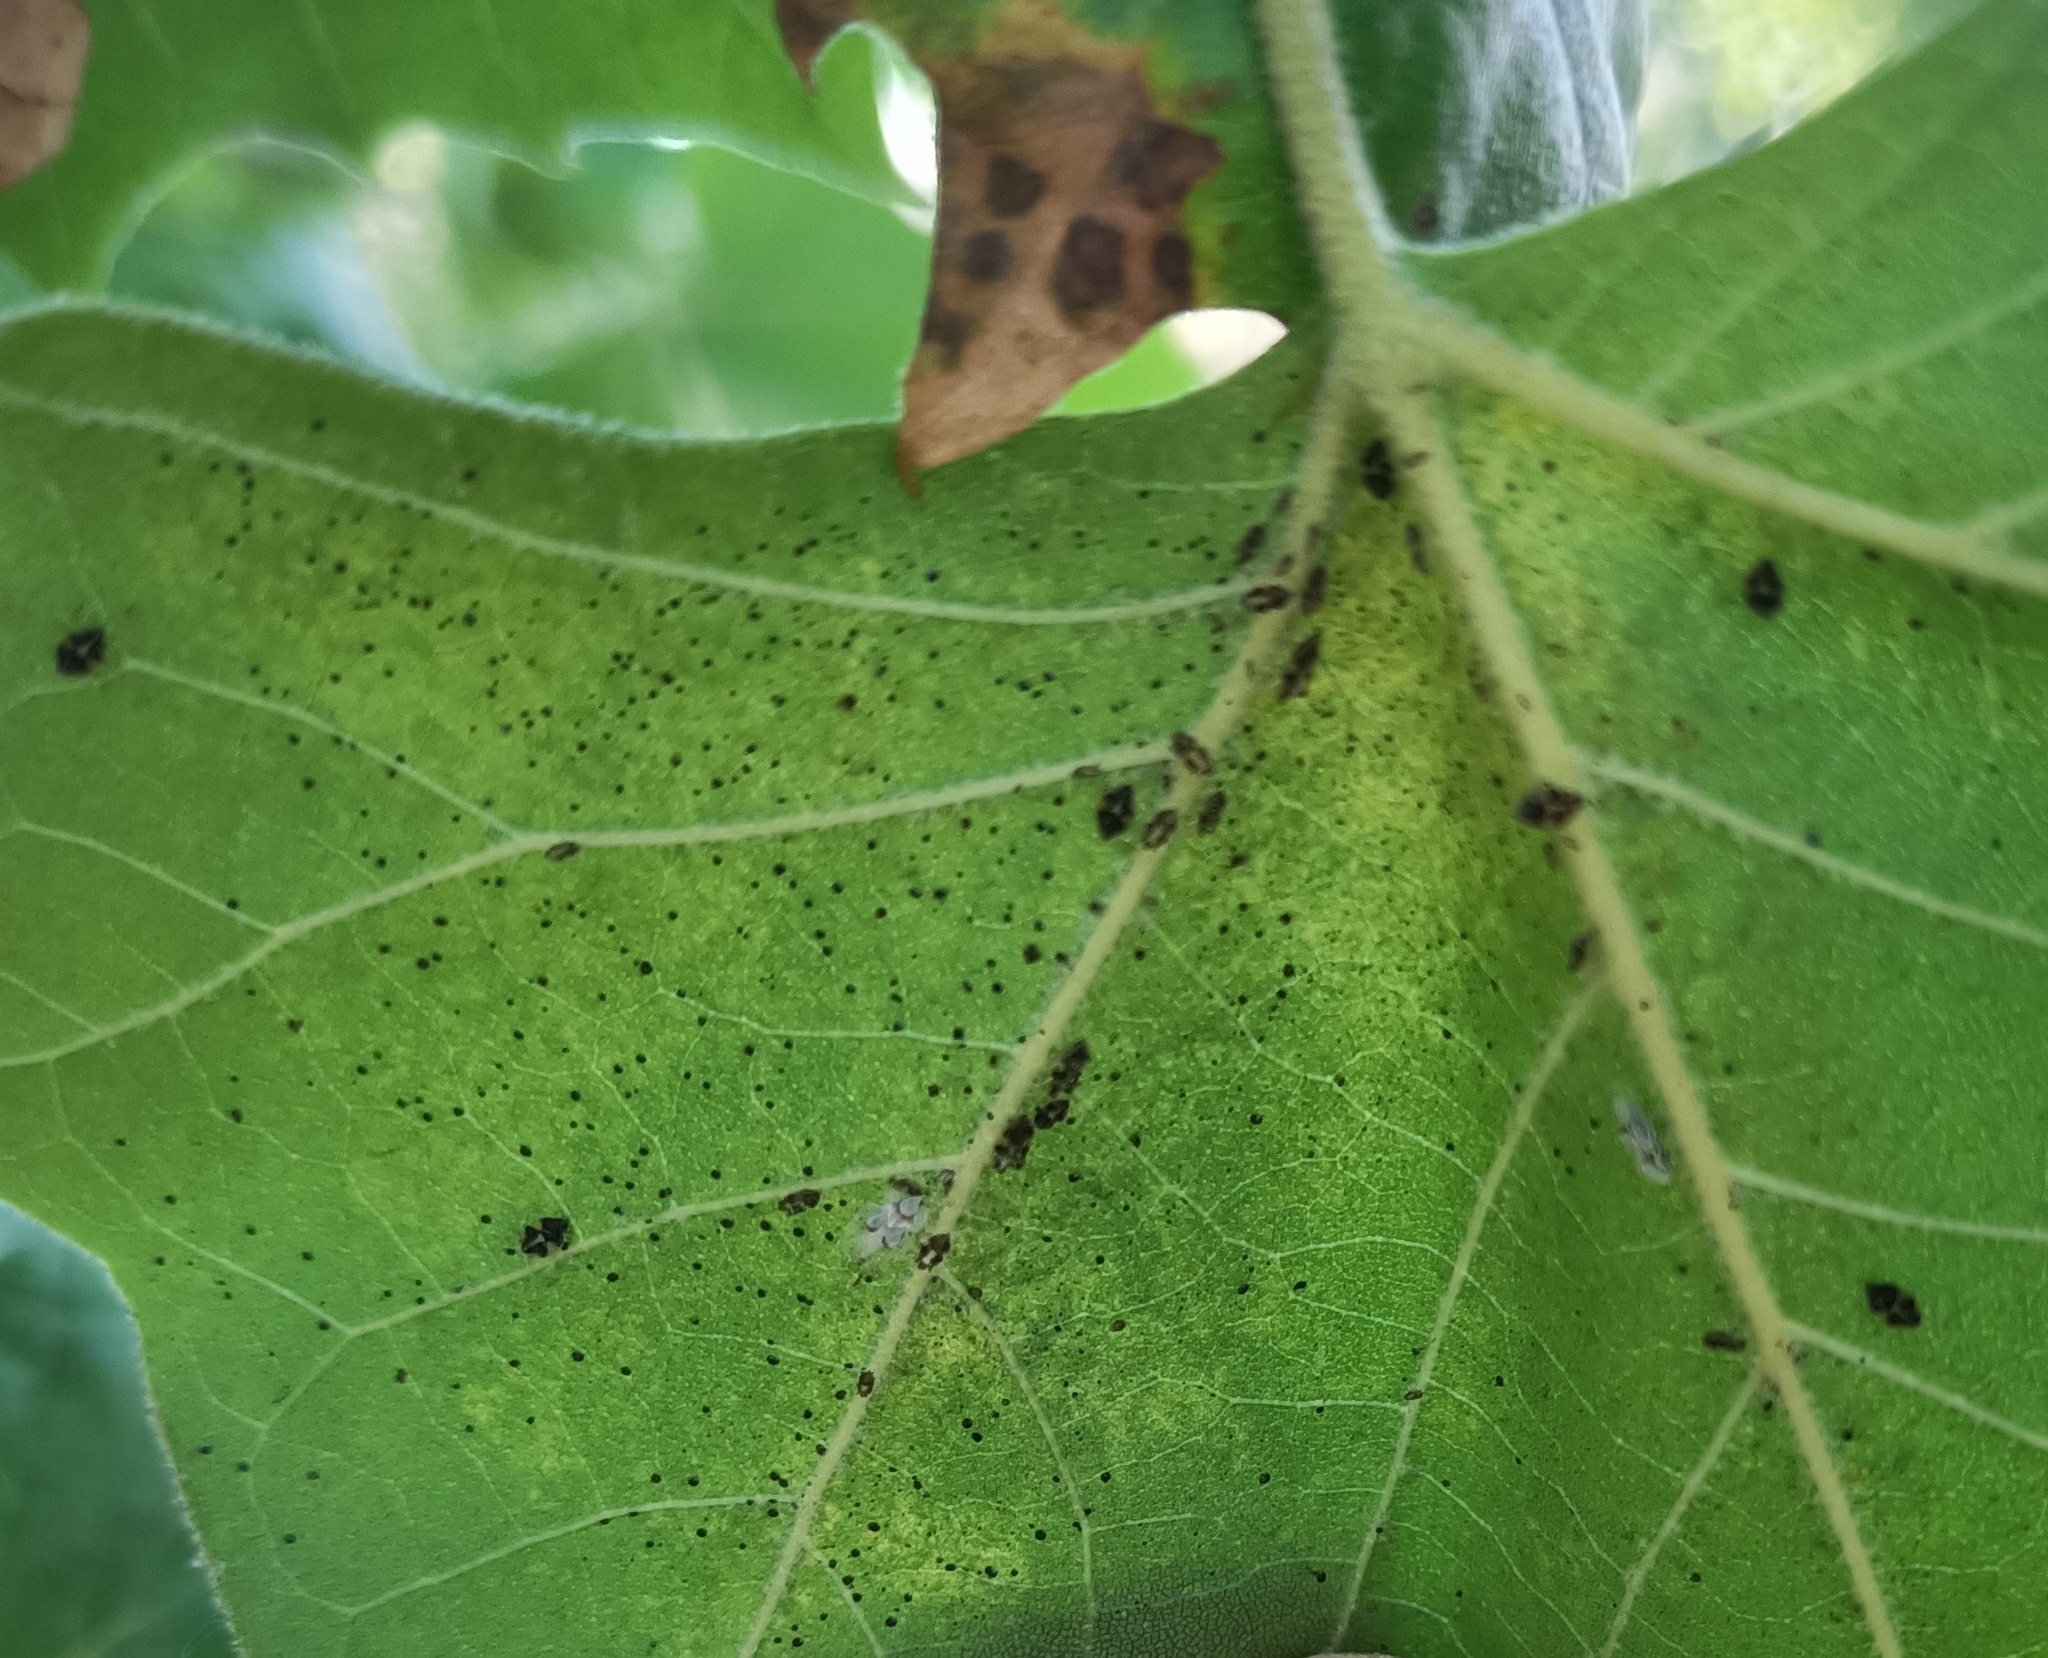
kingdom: Animalia
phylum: Arthropoda
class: Insecta
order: Hemiptera
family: Tingidae
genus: Corythucha
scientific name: Corythucha ciliata
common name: Sycamore lace bug
